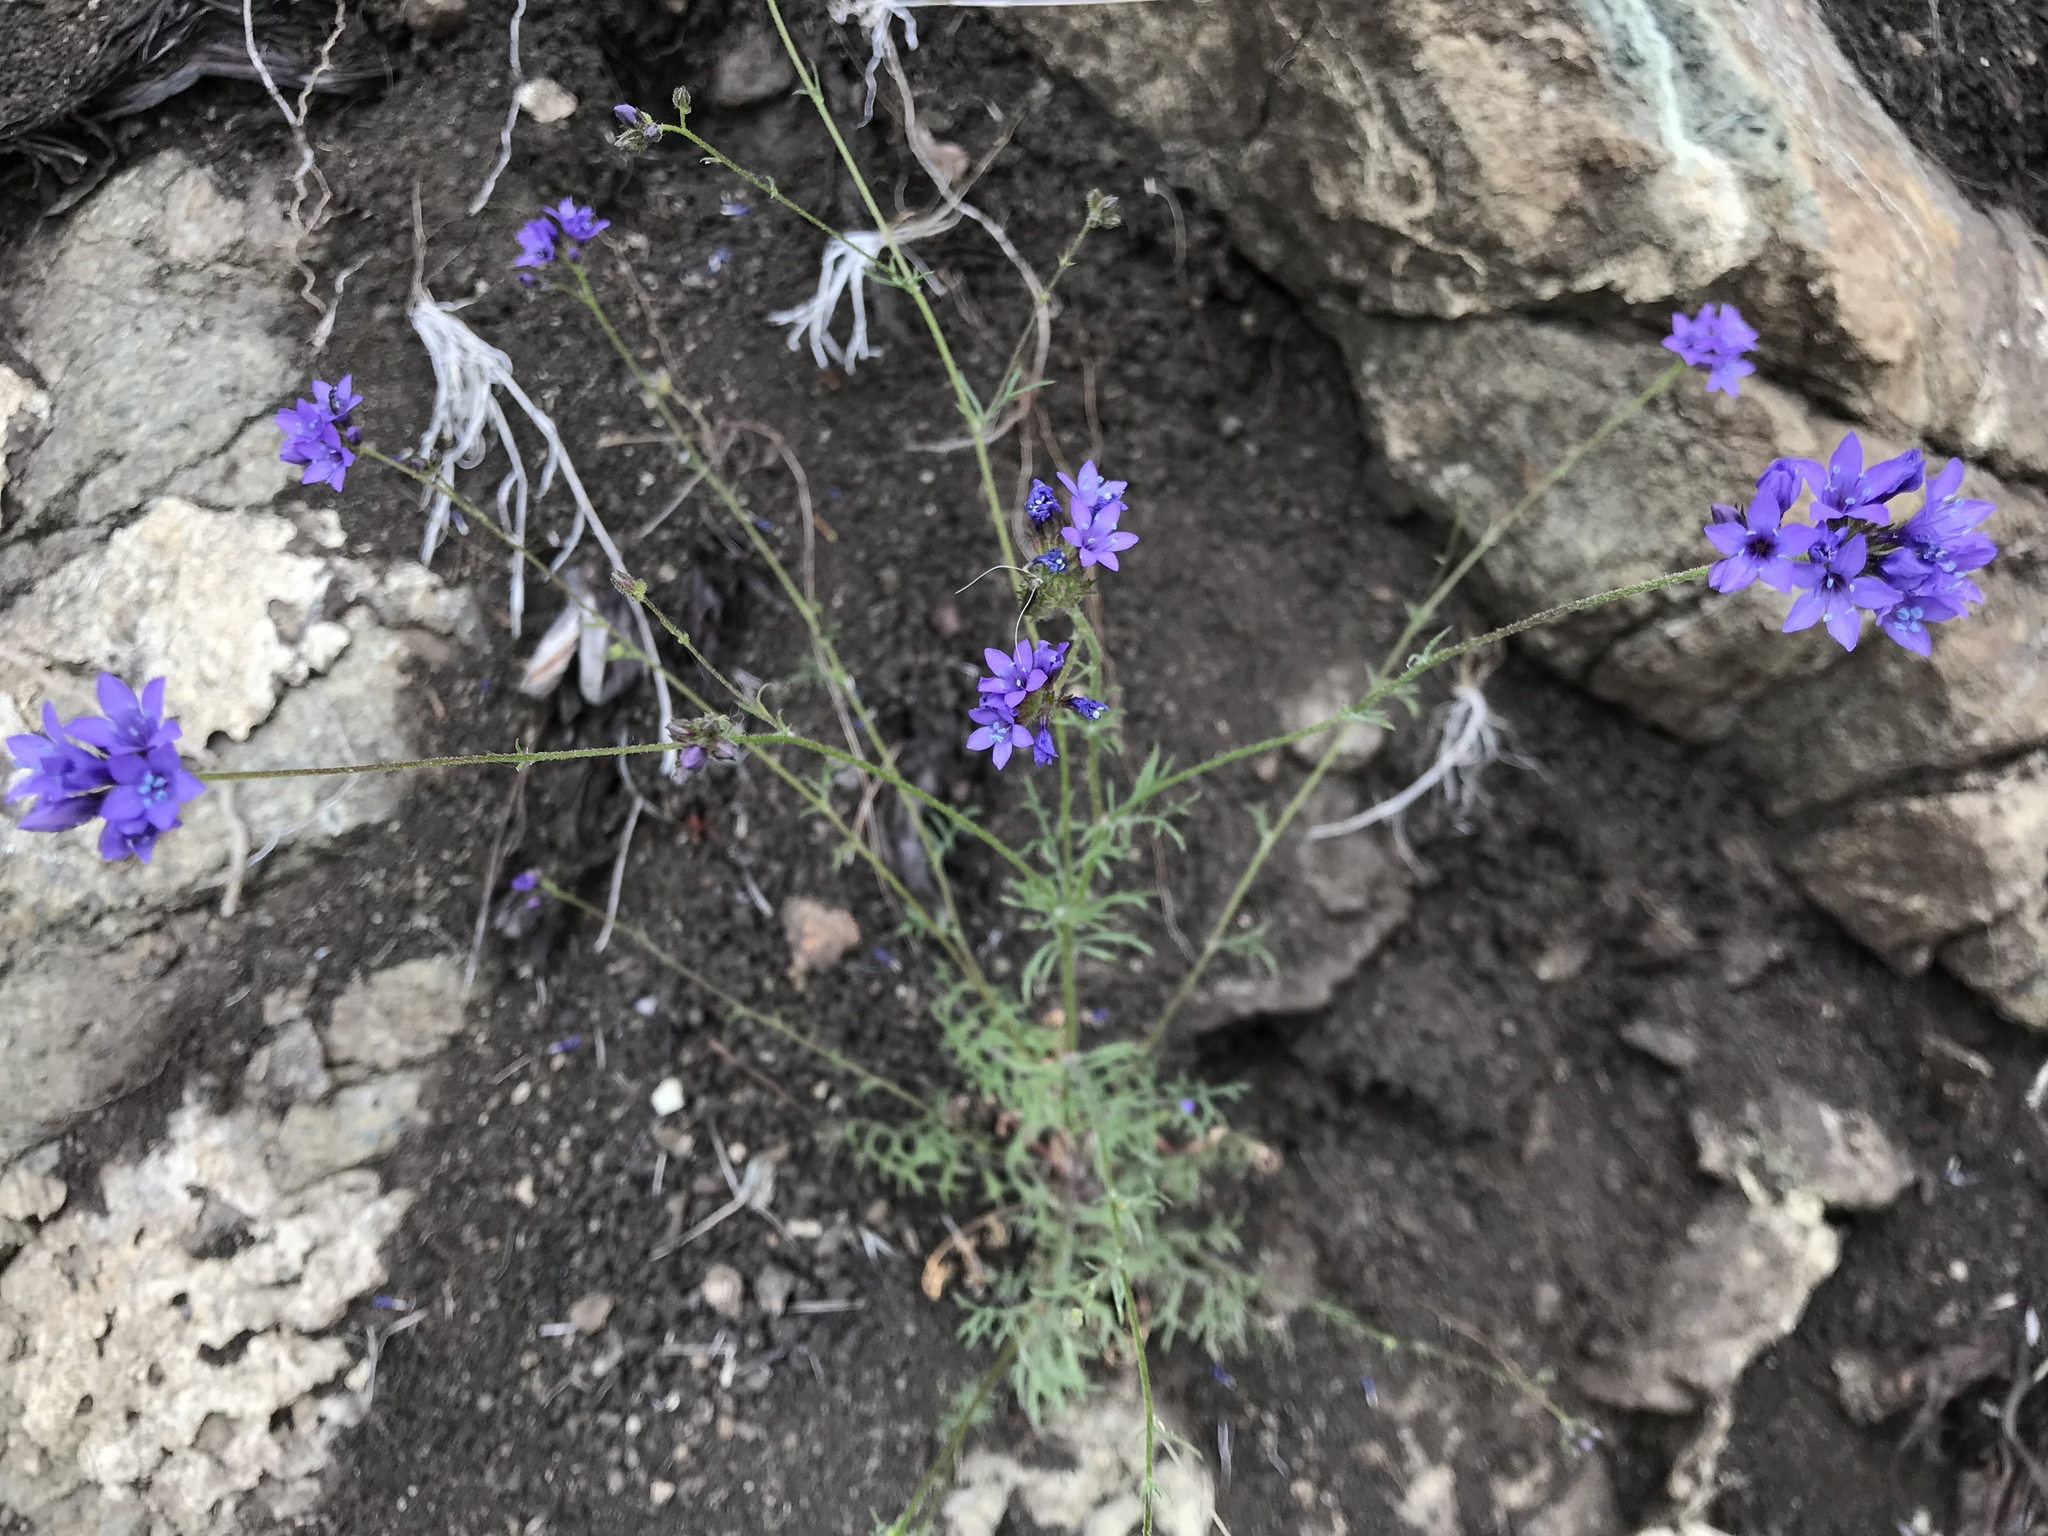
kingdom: Plantae
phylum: Tracheophyta
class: Magnoliopsida
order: Ericales
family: Polemoniaceae
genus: Gilia
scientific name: Gilia achilleifolia
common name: California gily-flower
